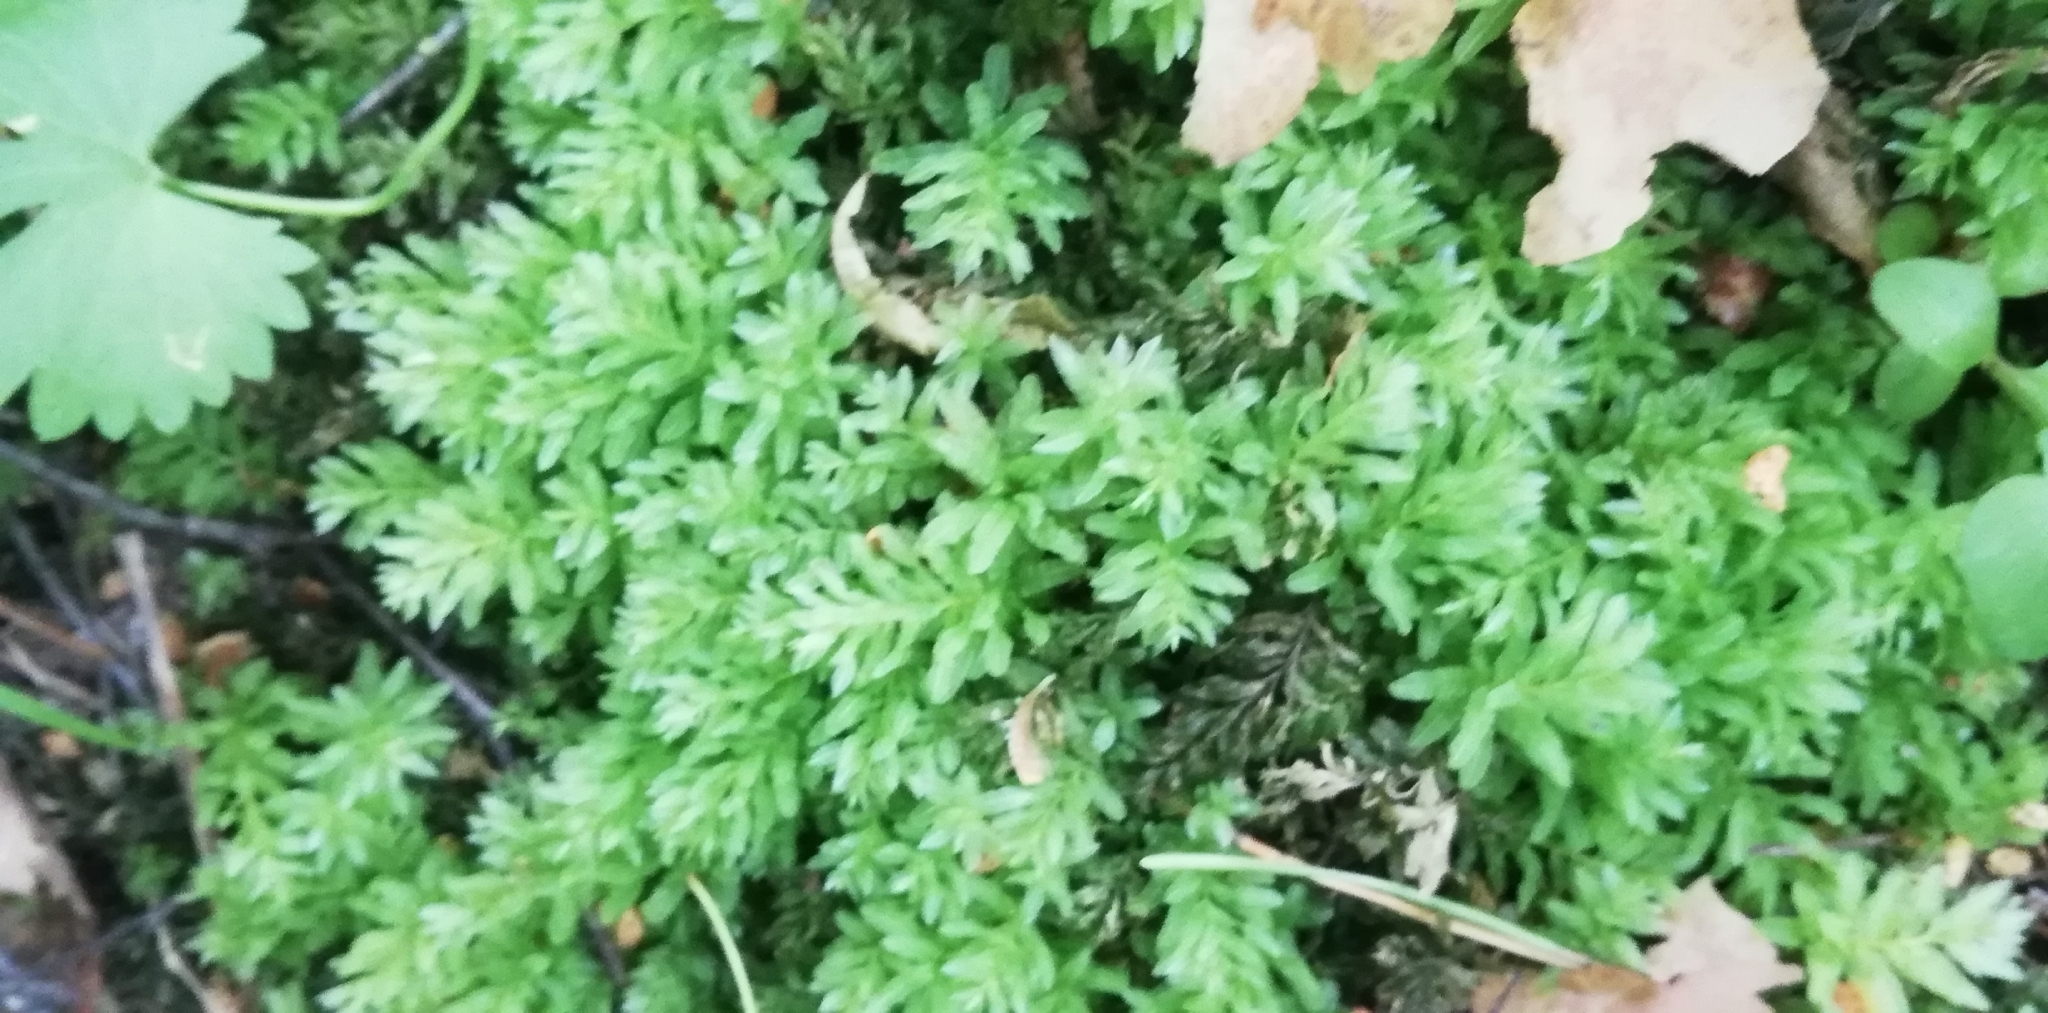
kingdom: Plantae
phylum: Bryophyta
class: Bryopsida
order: Bryales
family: Mniaceae
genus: Plagiomnium
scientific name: Plagiomnium undulatum
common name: Hart's-tongue thyme-moss
